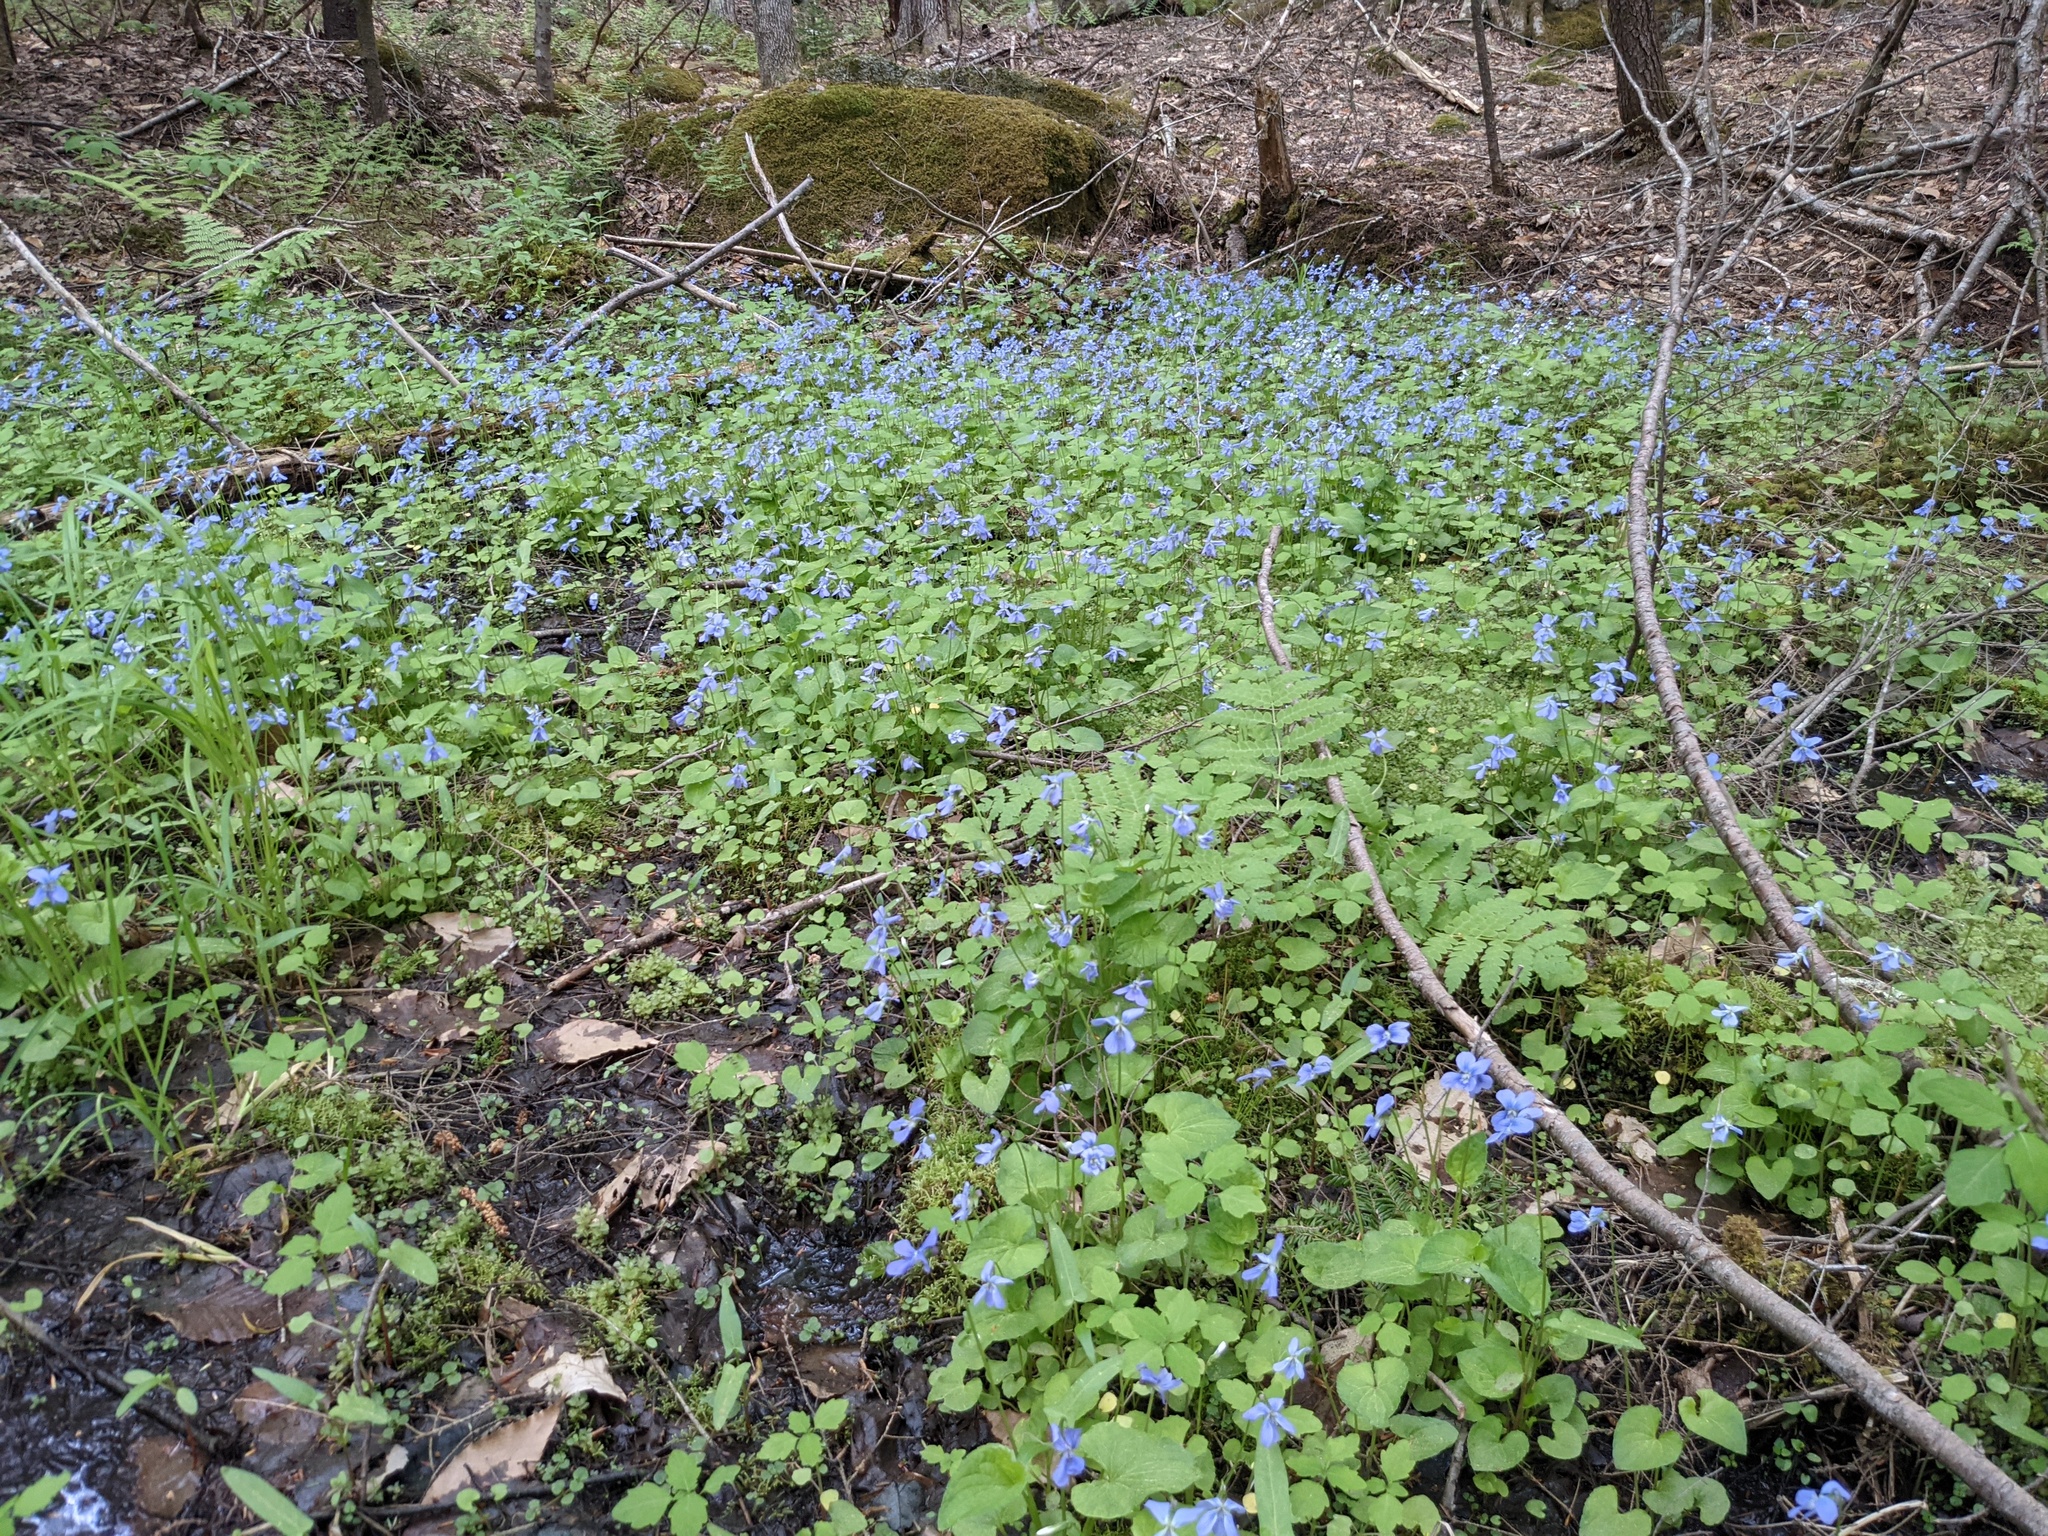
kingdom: Plantae
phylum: Tracheophyta
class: Magnoliopsida
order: Malpighiales
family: Violaceae
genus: Viola
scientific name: Viola cucullata
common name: Marsh blue violet
